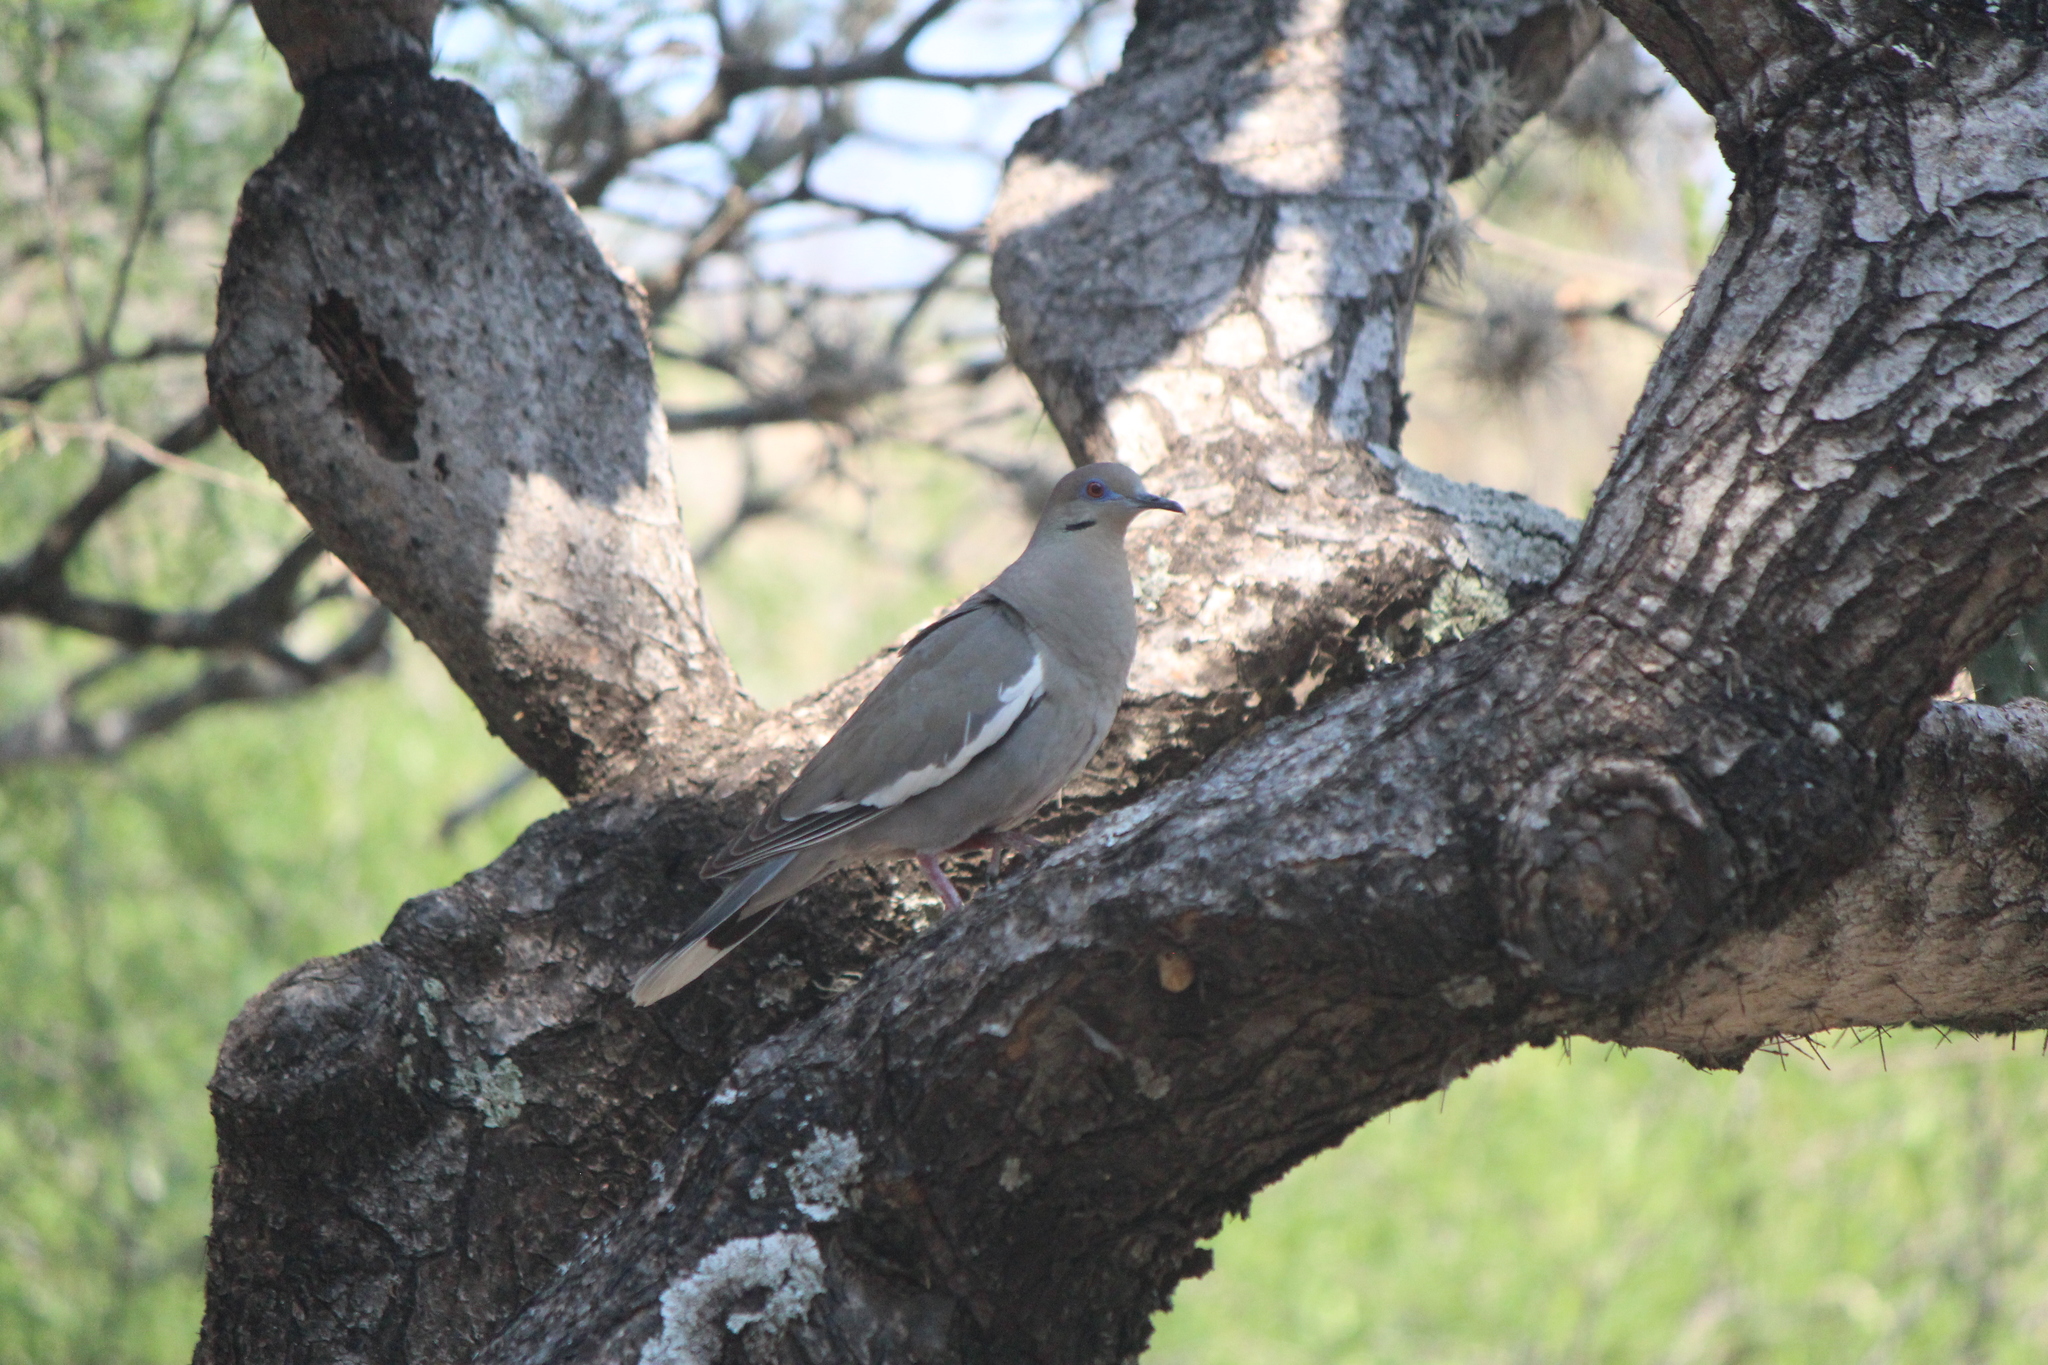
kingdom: Animalia
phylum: Chordata
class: Aves
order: Columbiformes
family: Columbidae
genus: Zenaida
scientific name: Zenaida asiatica
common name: White-winged dove
